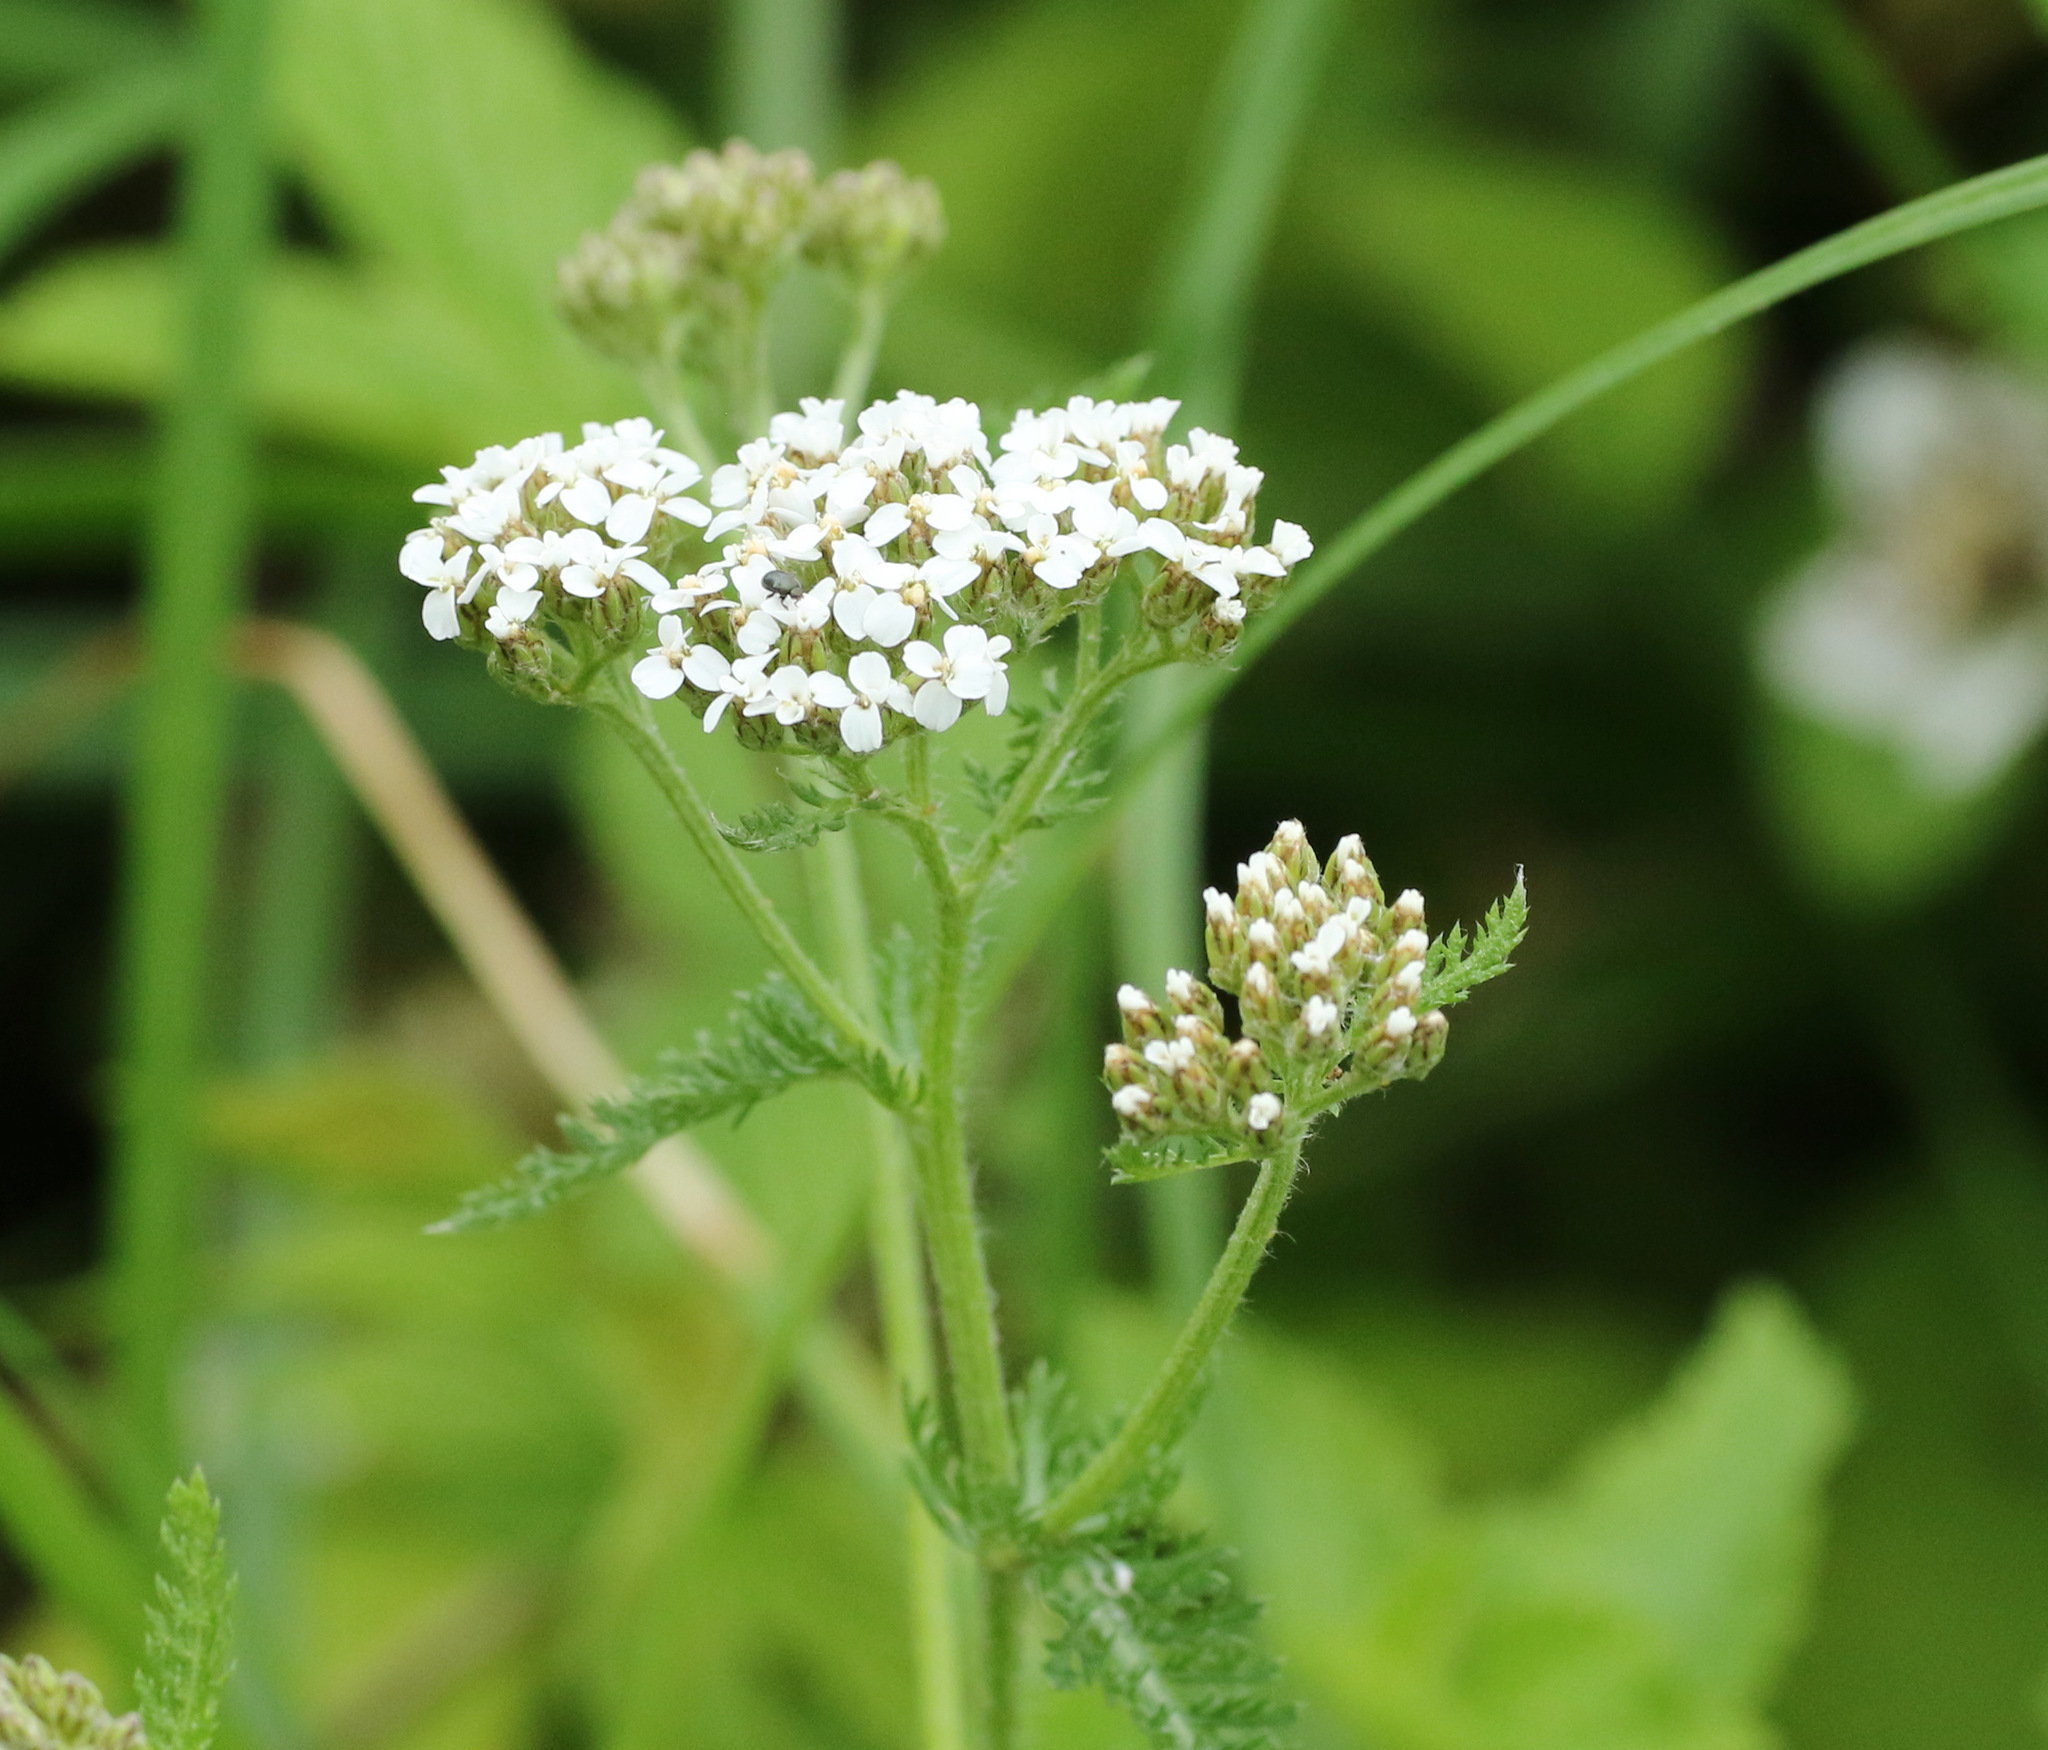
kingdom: Plantae
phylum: Tracheophyta
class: Magnoliopsida
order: Asterales
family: Asteraceae
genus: Achillea
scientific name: Achillea millefolium
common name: Yarrow
